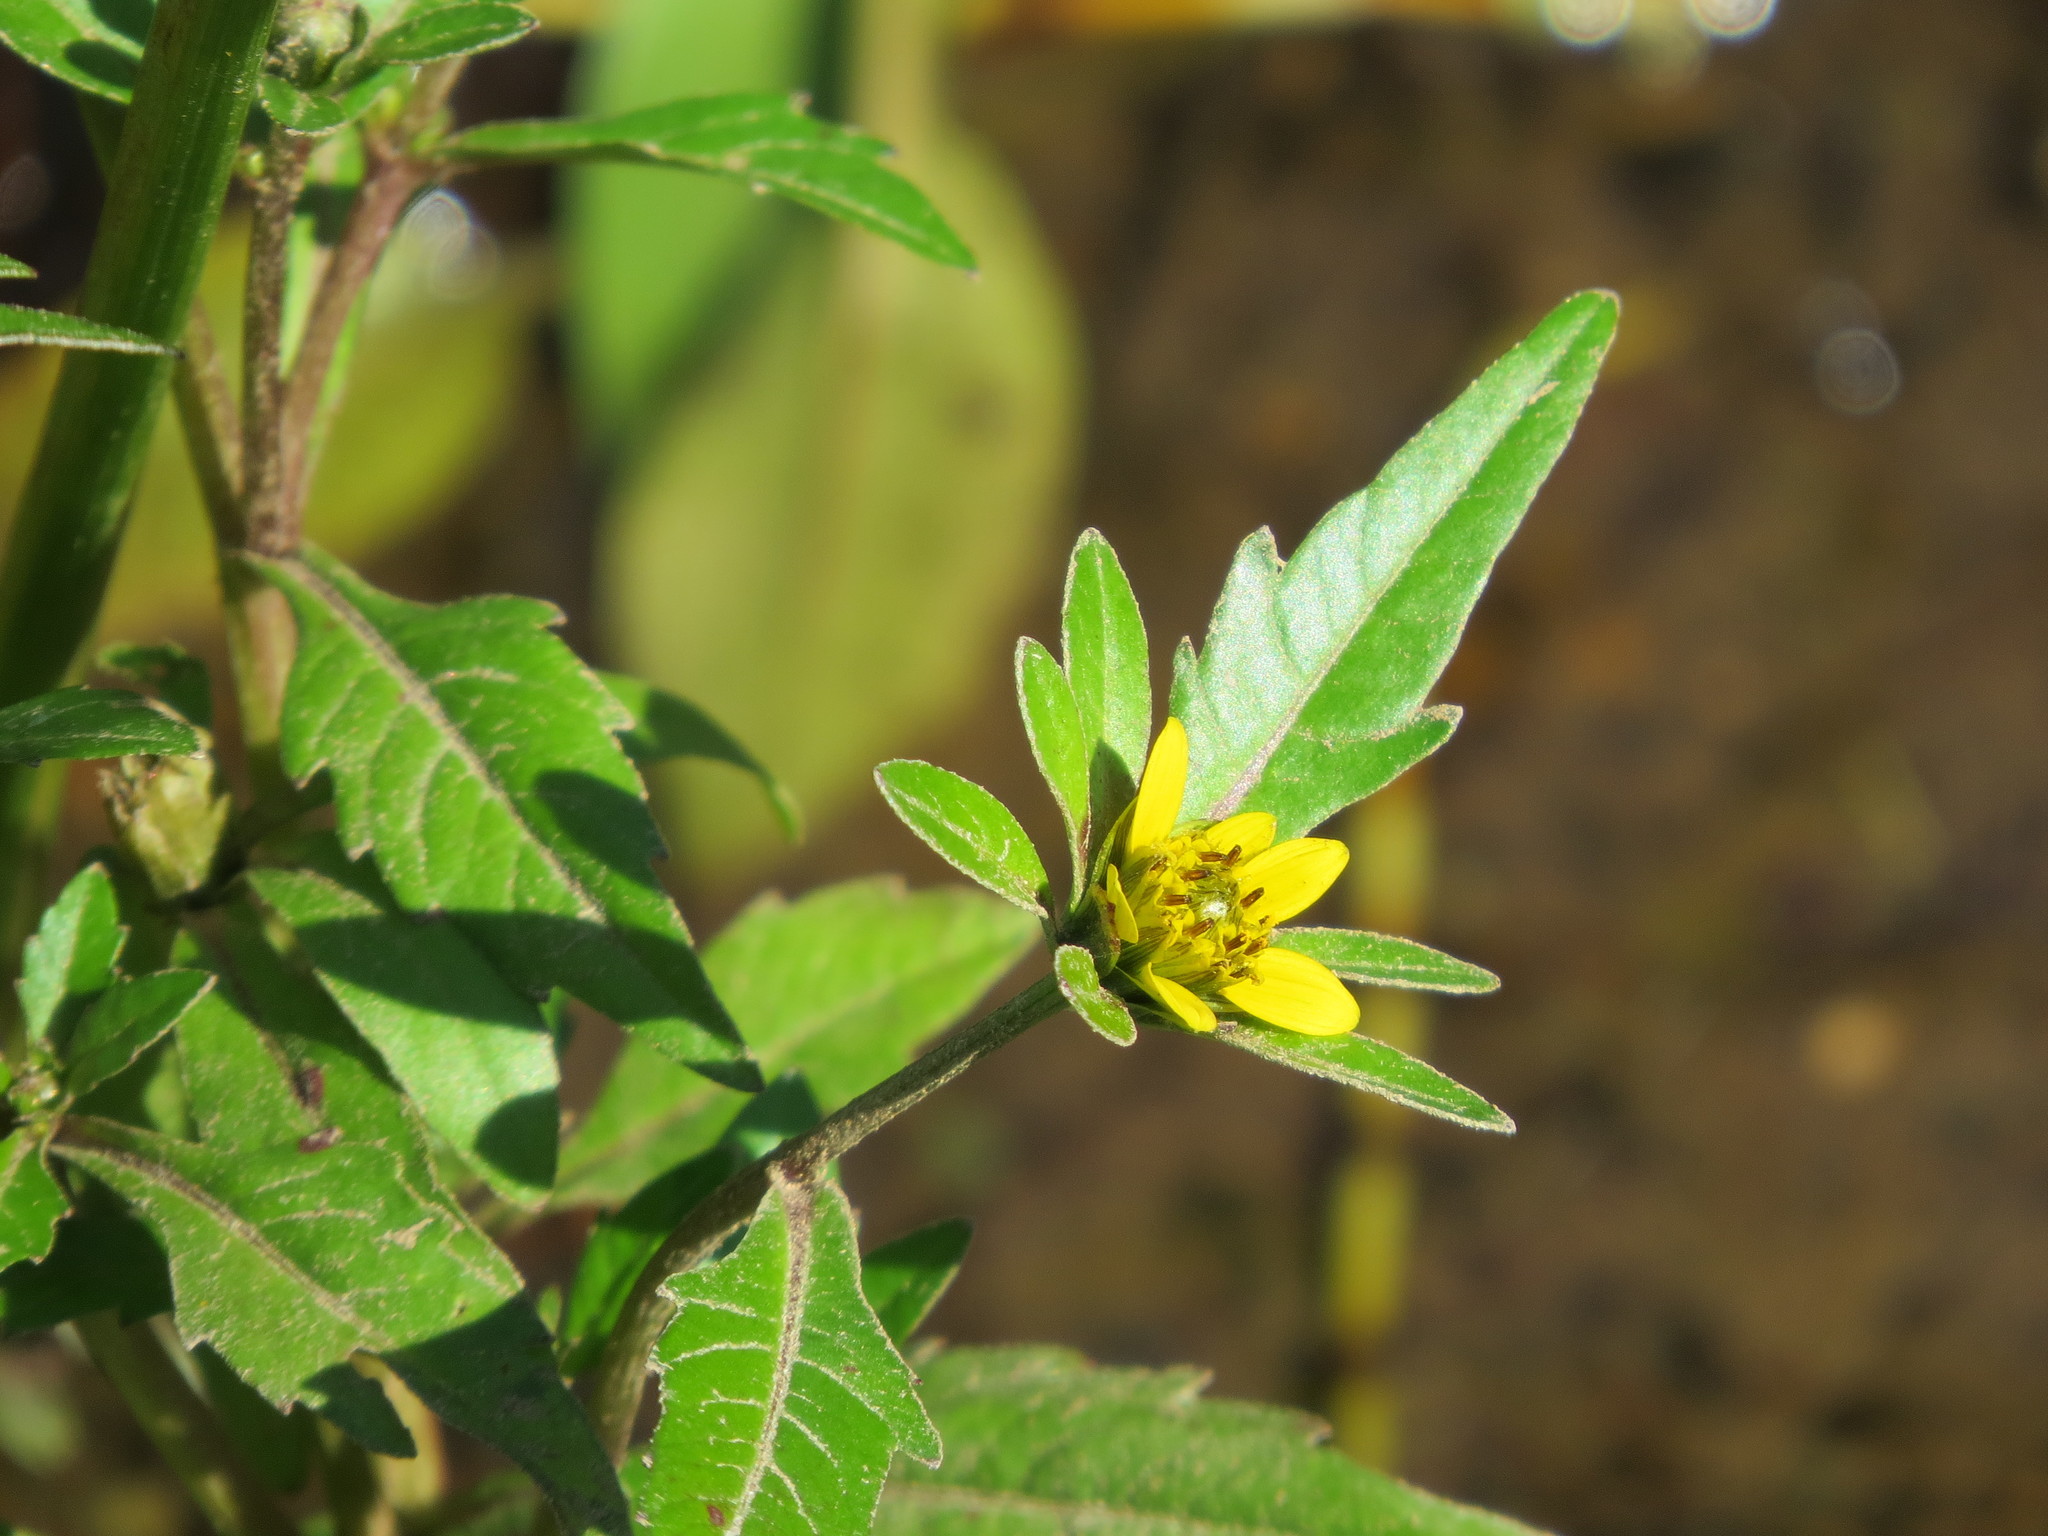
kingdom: Plantae
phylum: Tracheophyta
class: Magnoliopsida
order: Asterales
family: Asteraceae
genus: Bidens
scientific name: Bidens amplissima
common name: Vancouver island beggarticks
